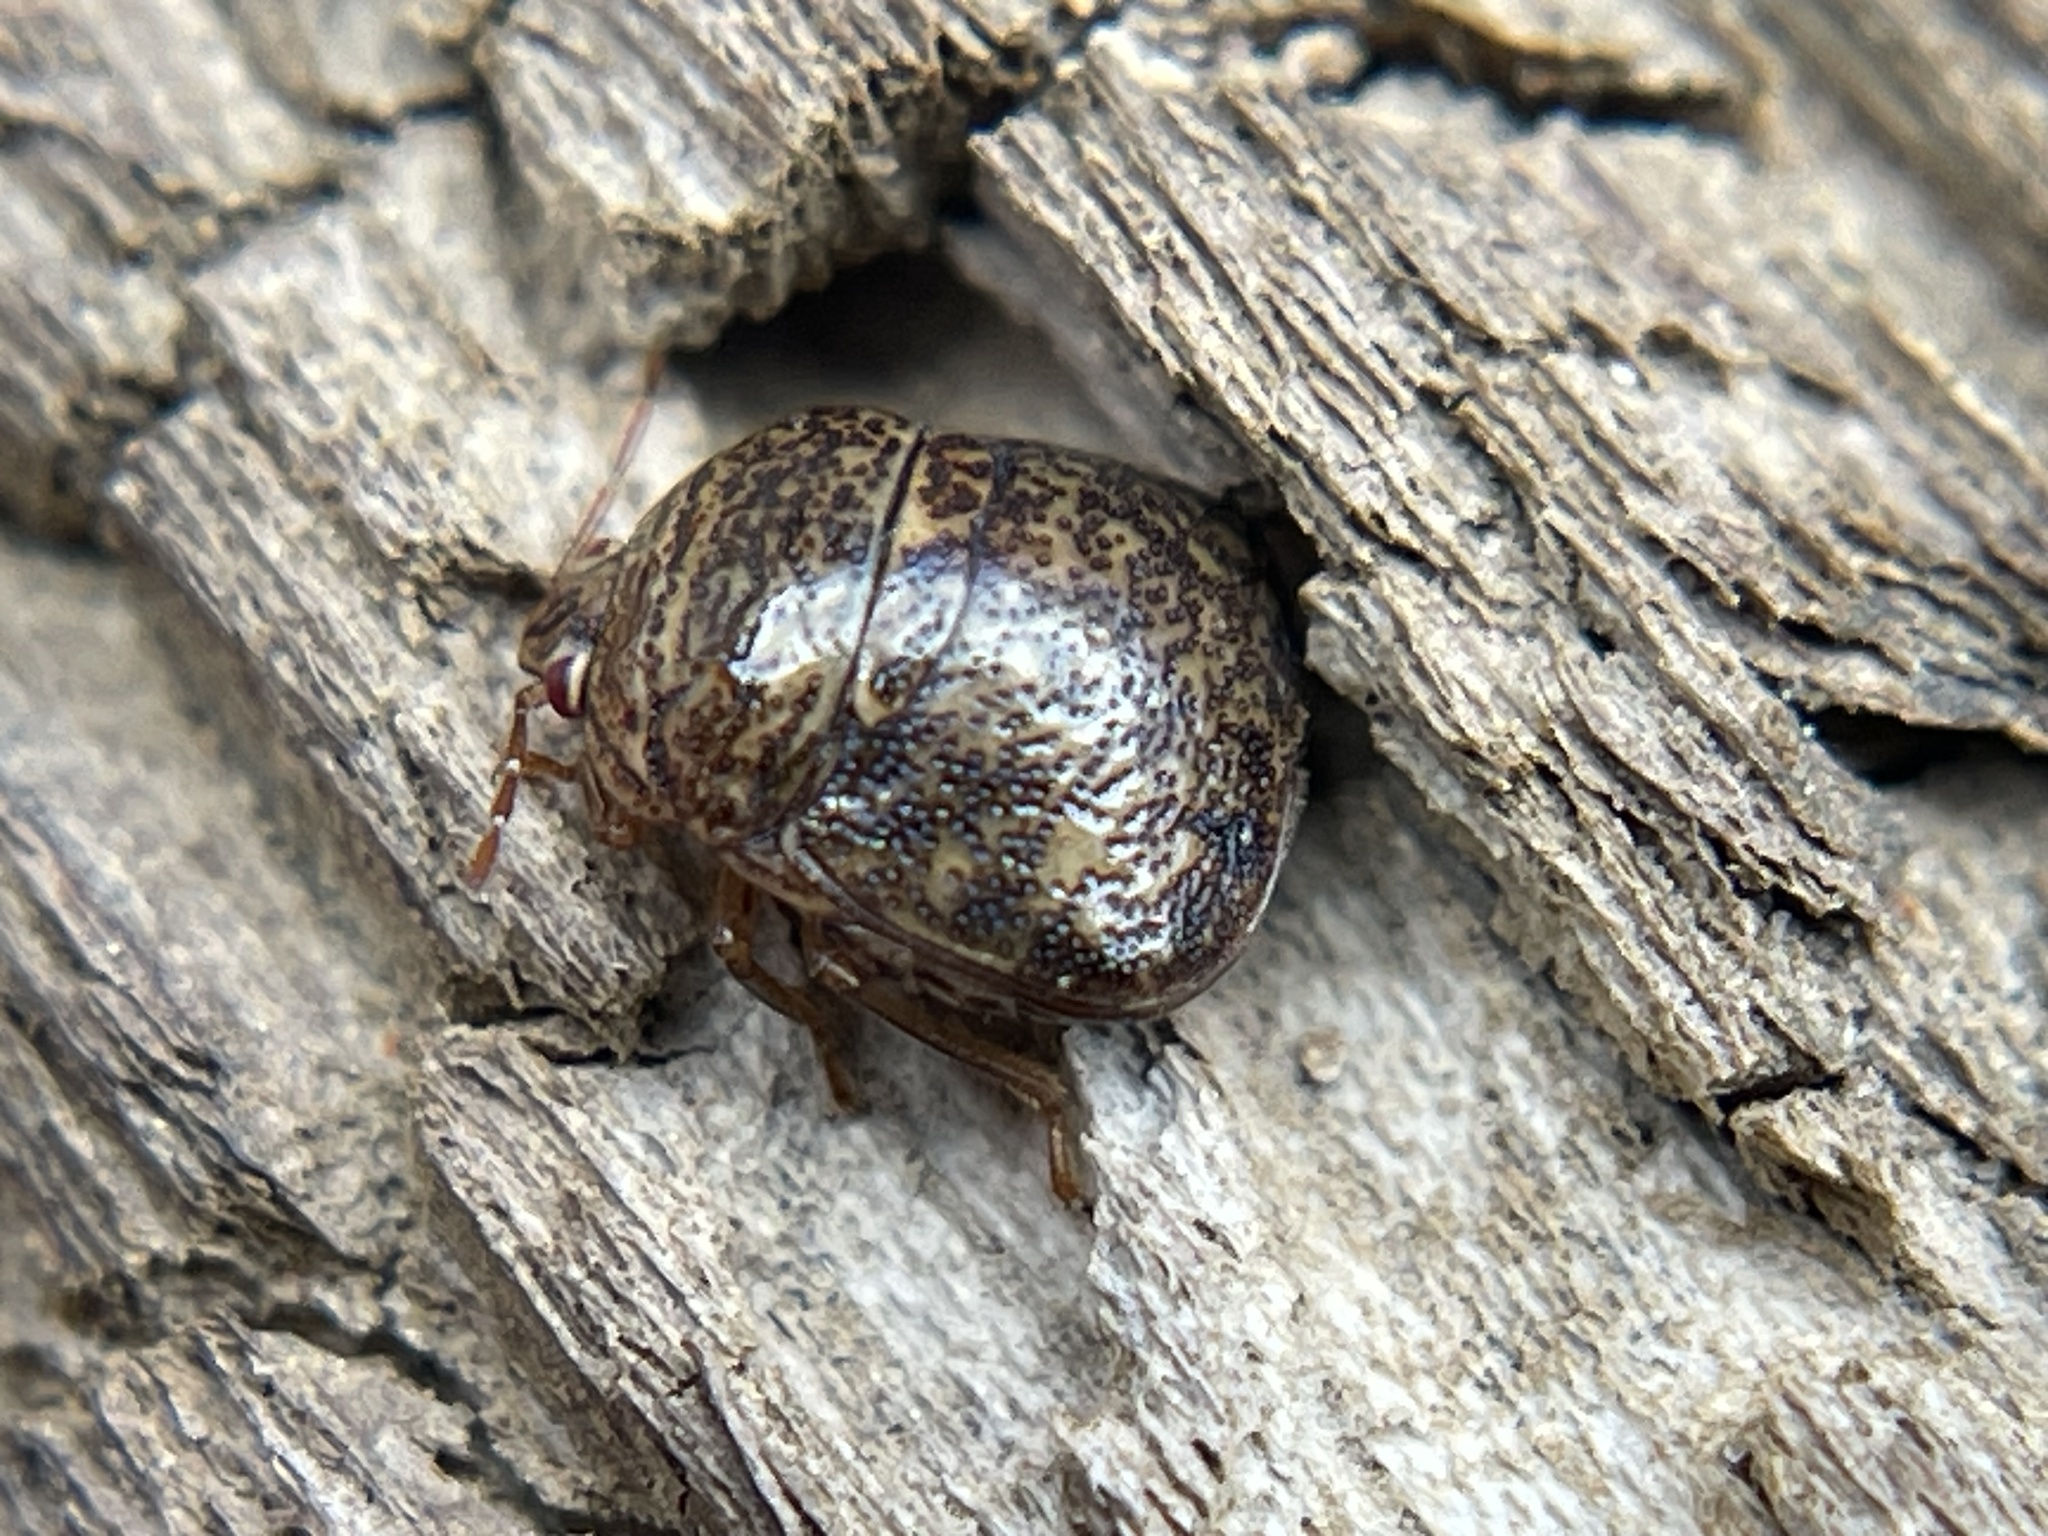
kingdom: Animalia
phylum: Arthropoda
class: Insecta
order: Hemiptera
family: Plataspidae
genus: Megacopta
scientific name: Megacopta cribraria
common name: Bean plataspid
